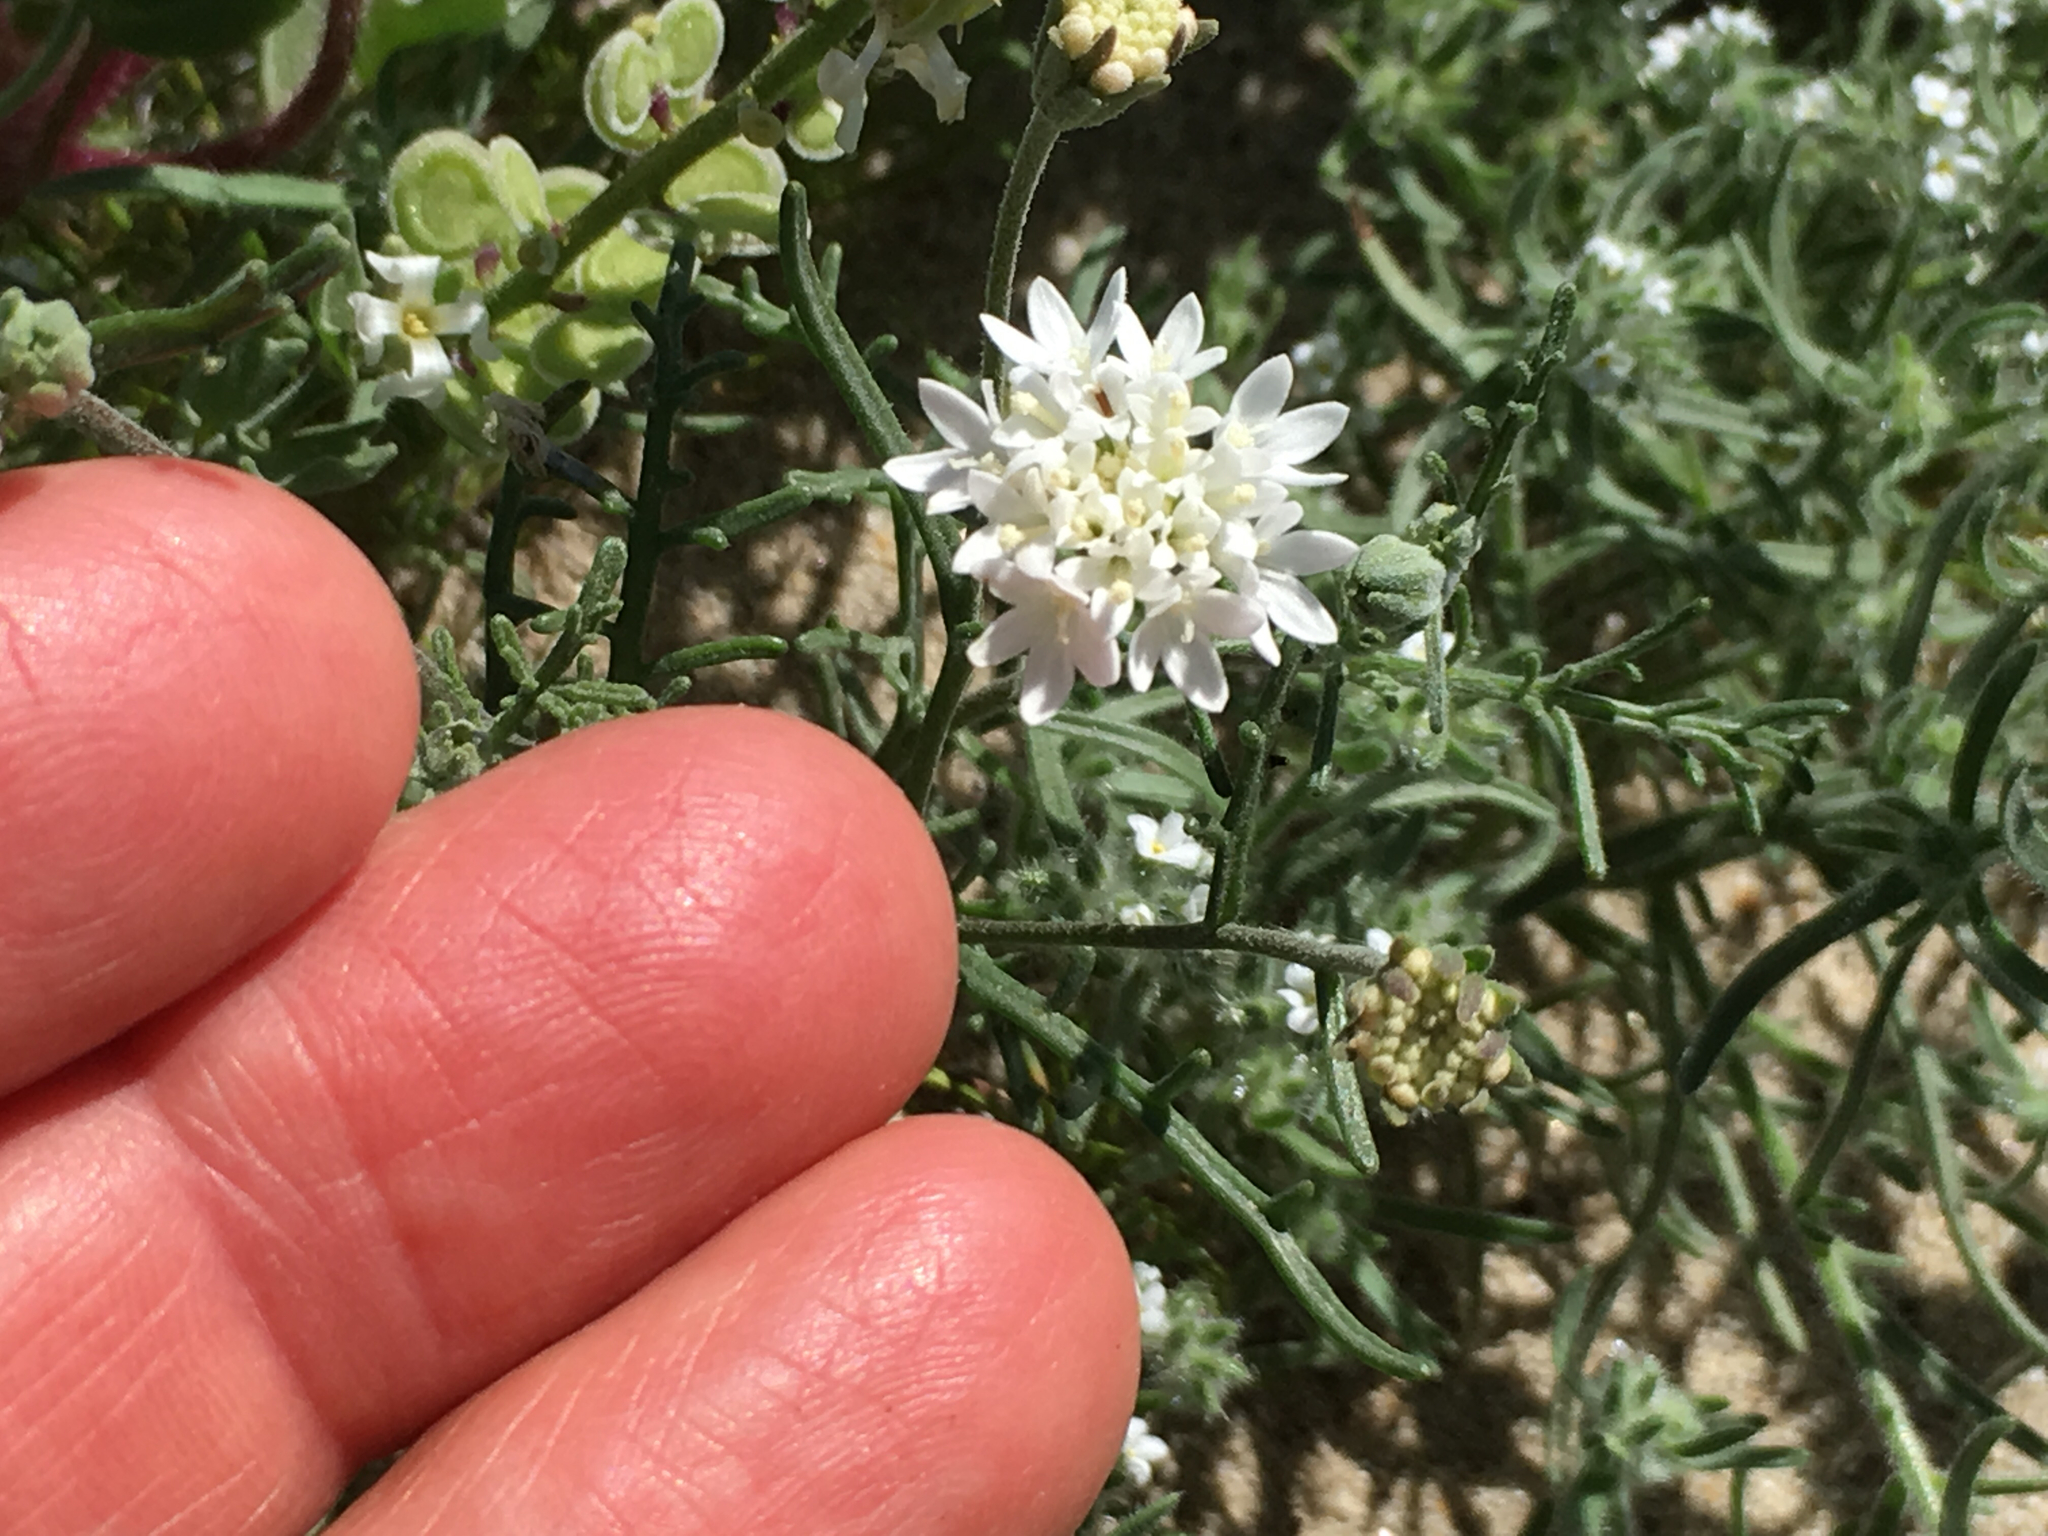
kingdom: Plantae
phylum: Tracheophyta
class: Magnoliopsida
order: Asterales
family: Asteraceae
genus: Chaenactis
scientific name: Chaenactis stevioides
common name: Desert pincushion
